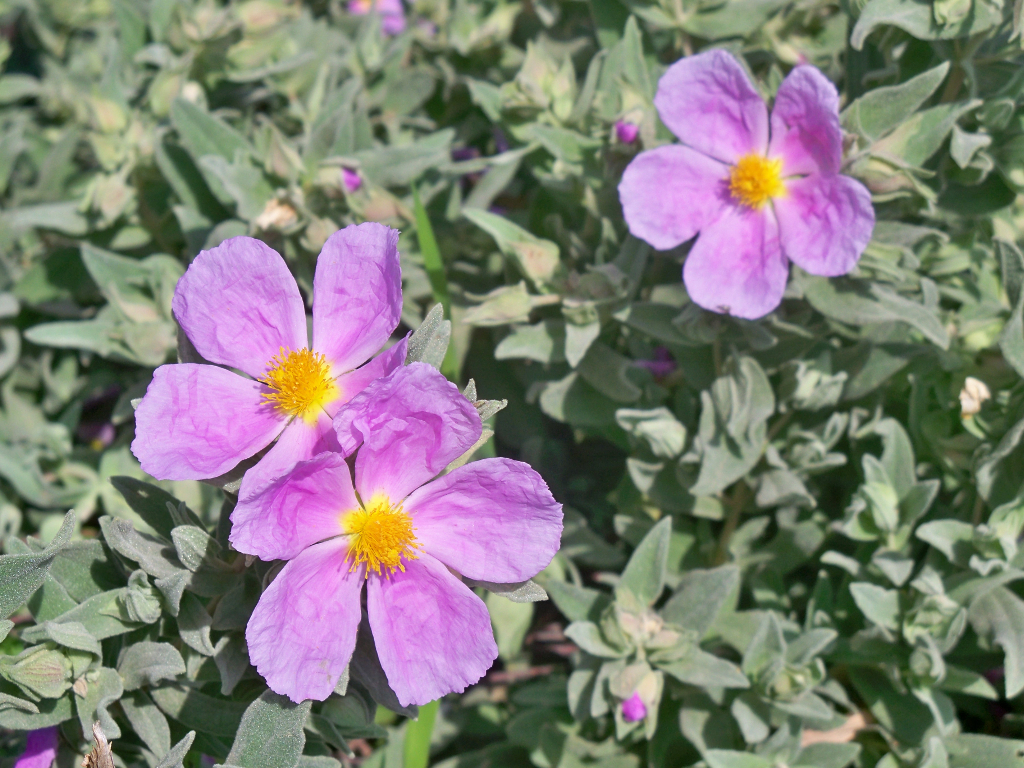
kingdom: Plantae
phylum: Tracheophyta
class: Magnoliopsida
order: Malvales
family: Cistaceae
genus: Cistus
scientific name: Cistus albidus
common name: White-leaf rock-rose
